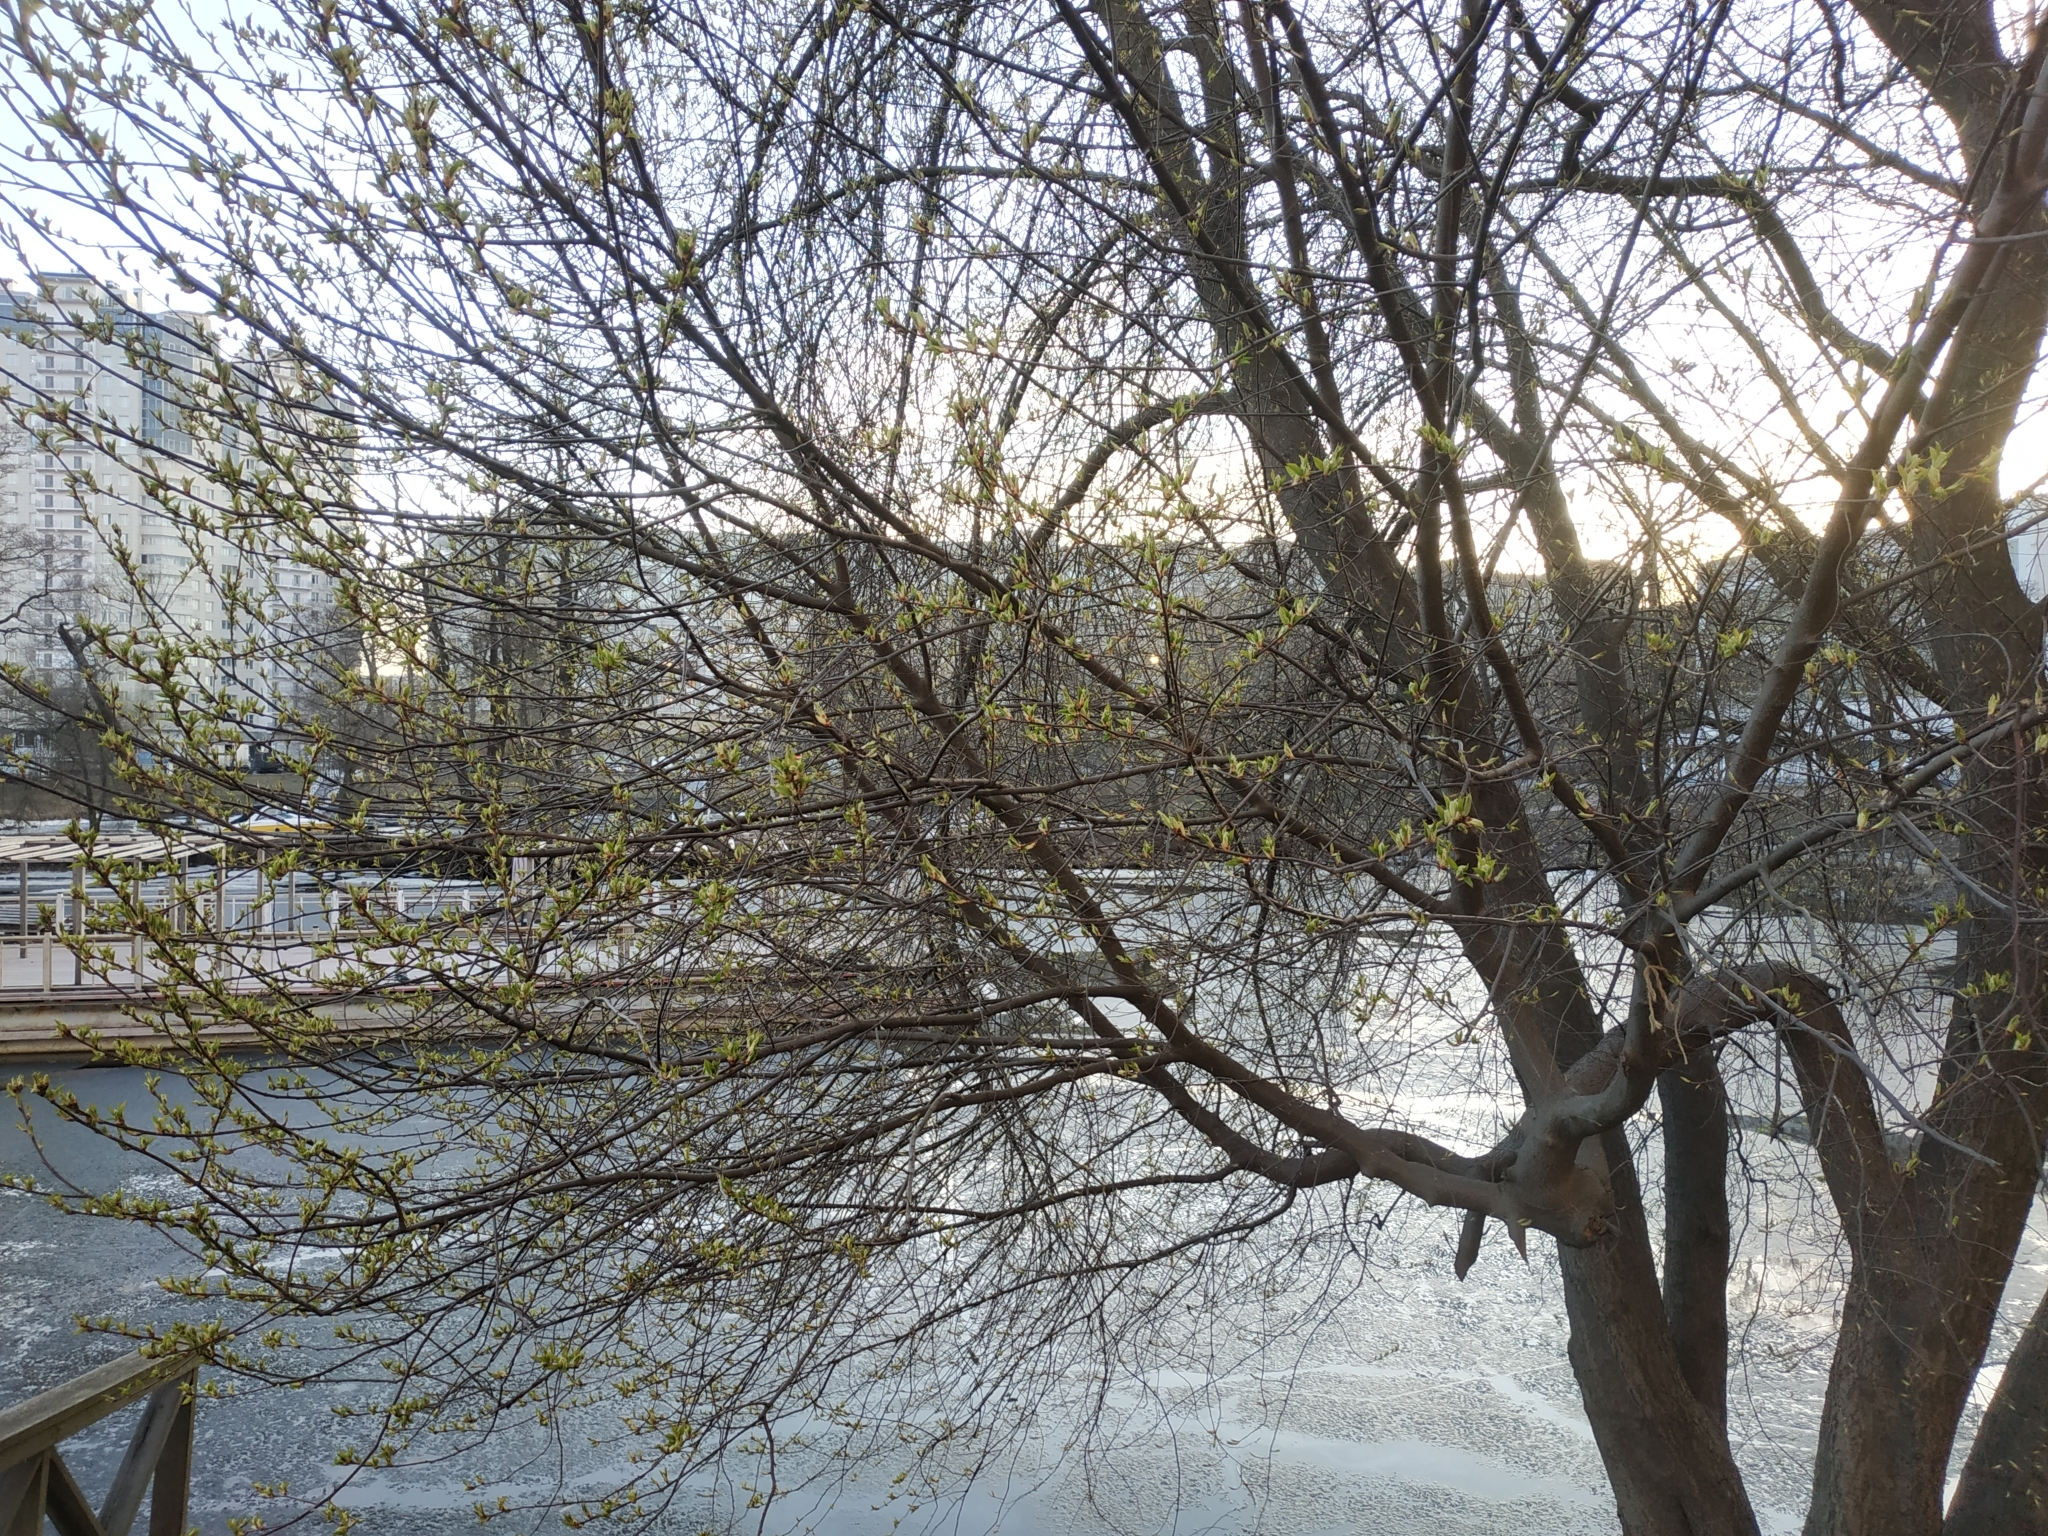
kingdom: Plantae
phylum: Tracheophyta
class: Magnoliopsida
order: Rosales
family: Rosaceae
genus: Prunus
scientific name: Prunus padus
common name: Bird cherry
